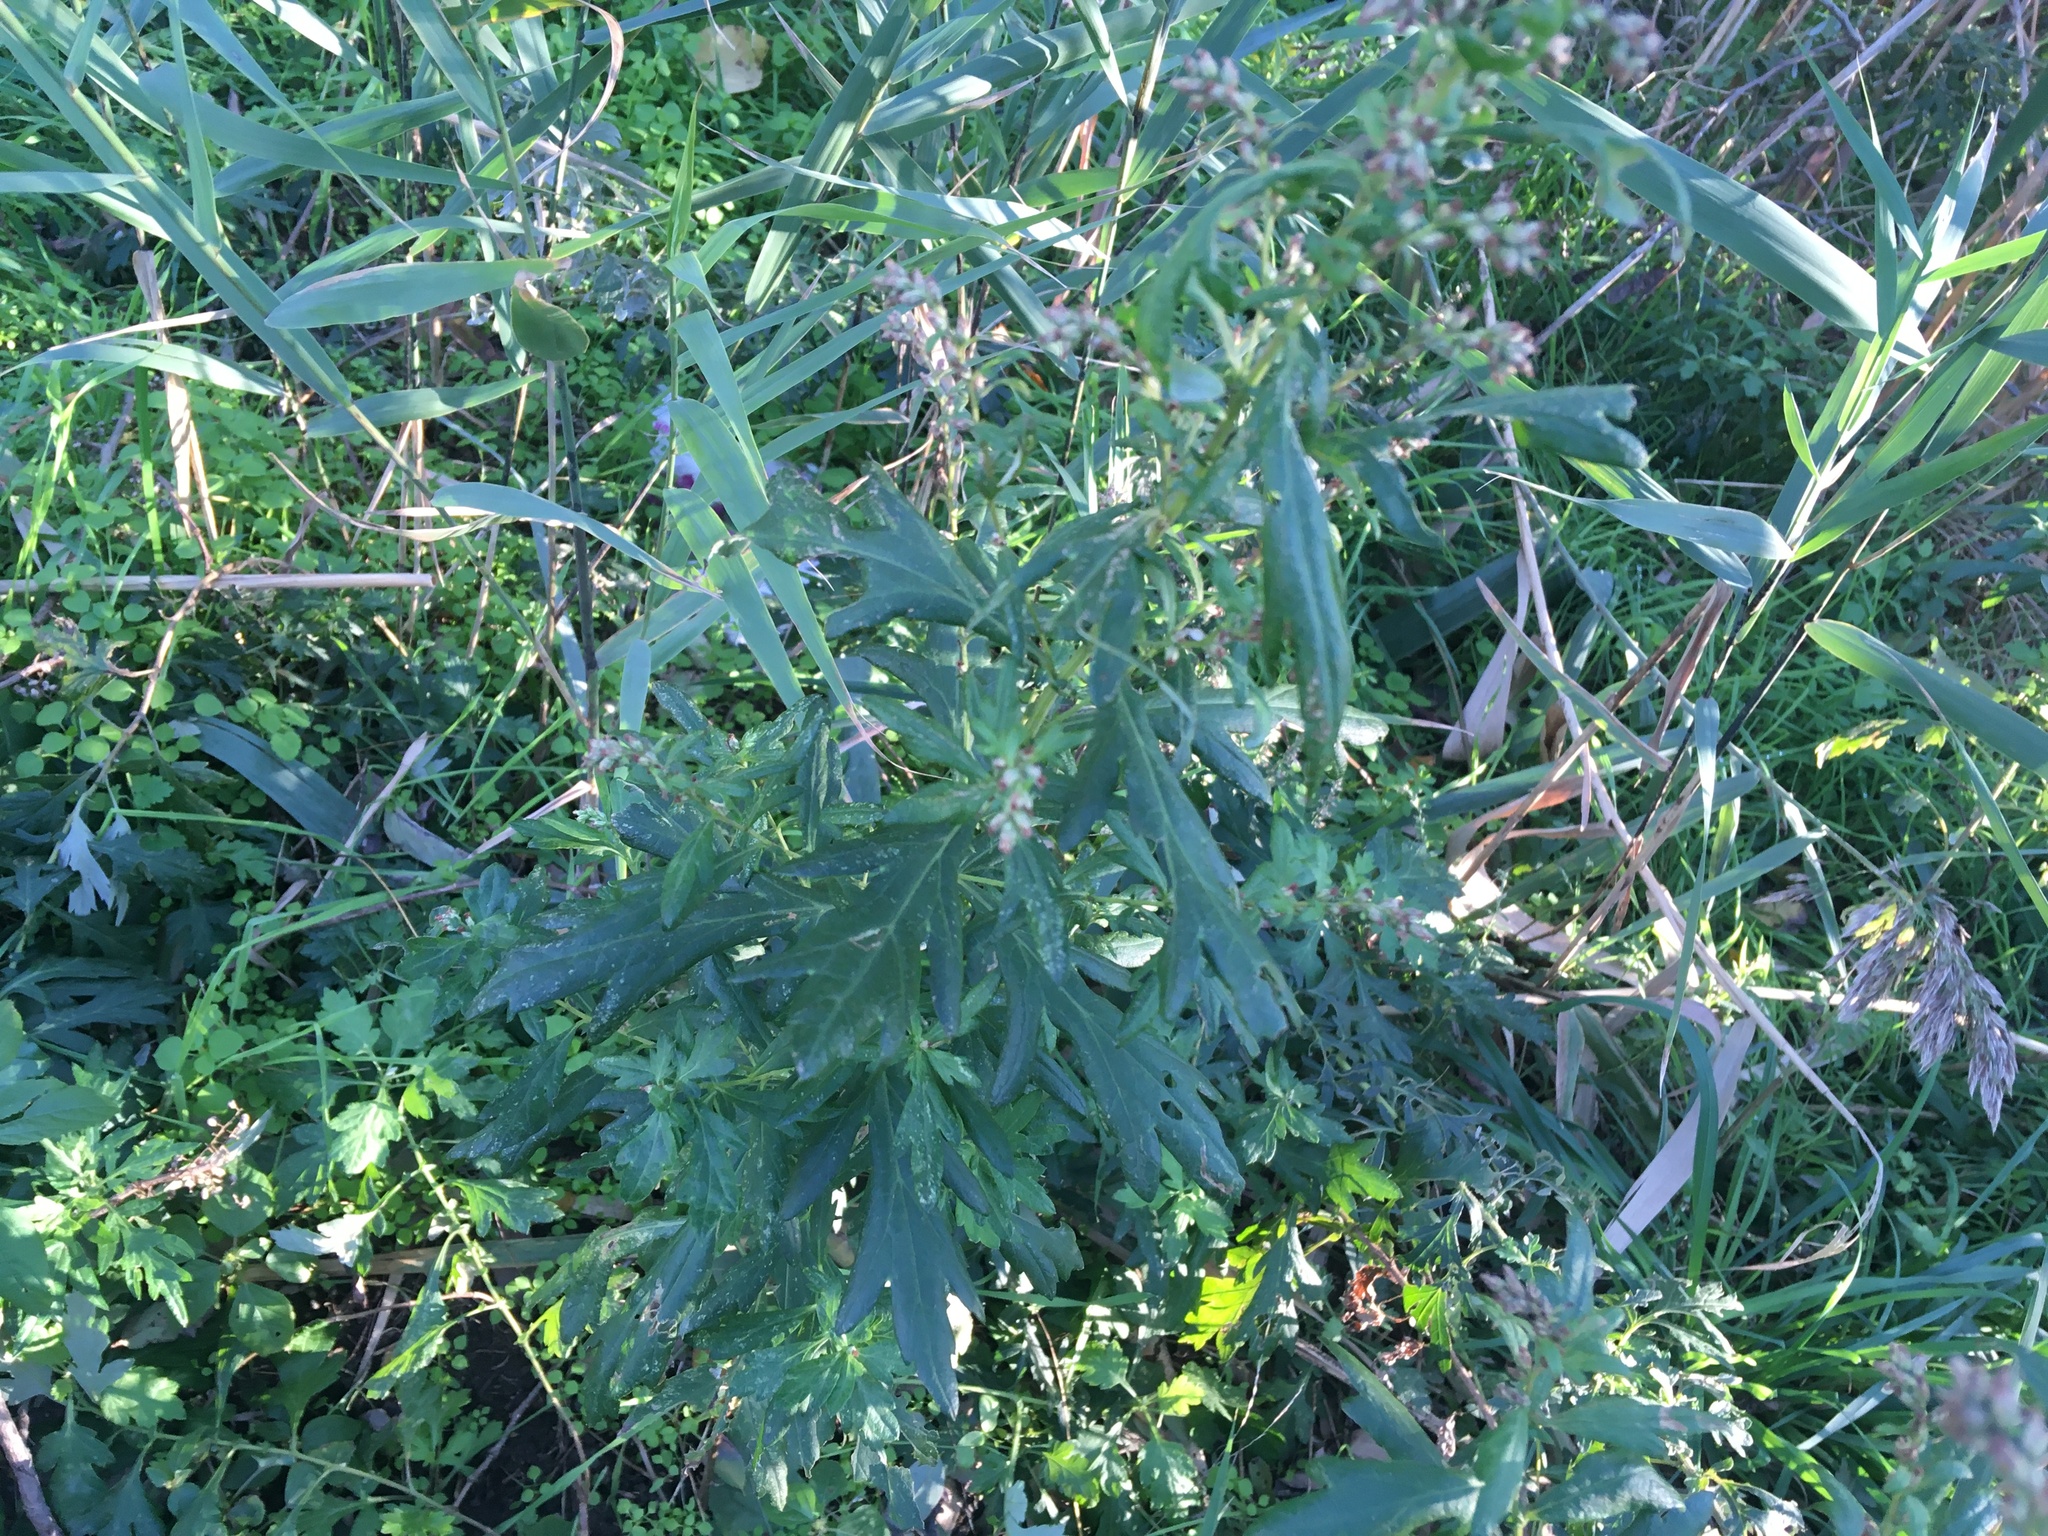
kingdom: Plantae
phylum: Tracheophyta
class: Magnoliopsida
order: Asterales
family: Asteraceae
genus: Artemisia
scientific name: Artemisia vulgaris
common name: Mugwort
